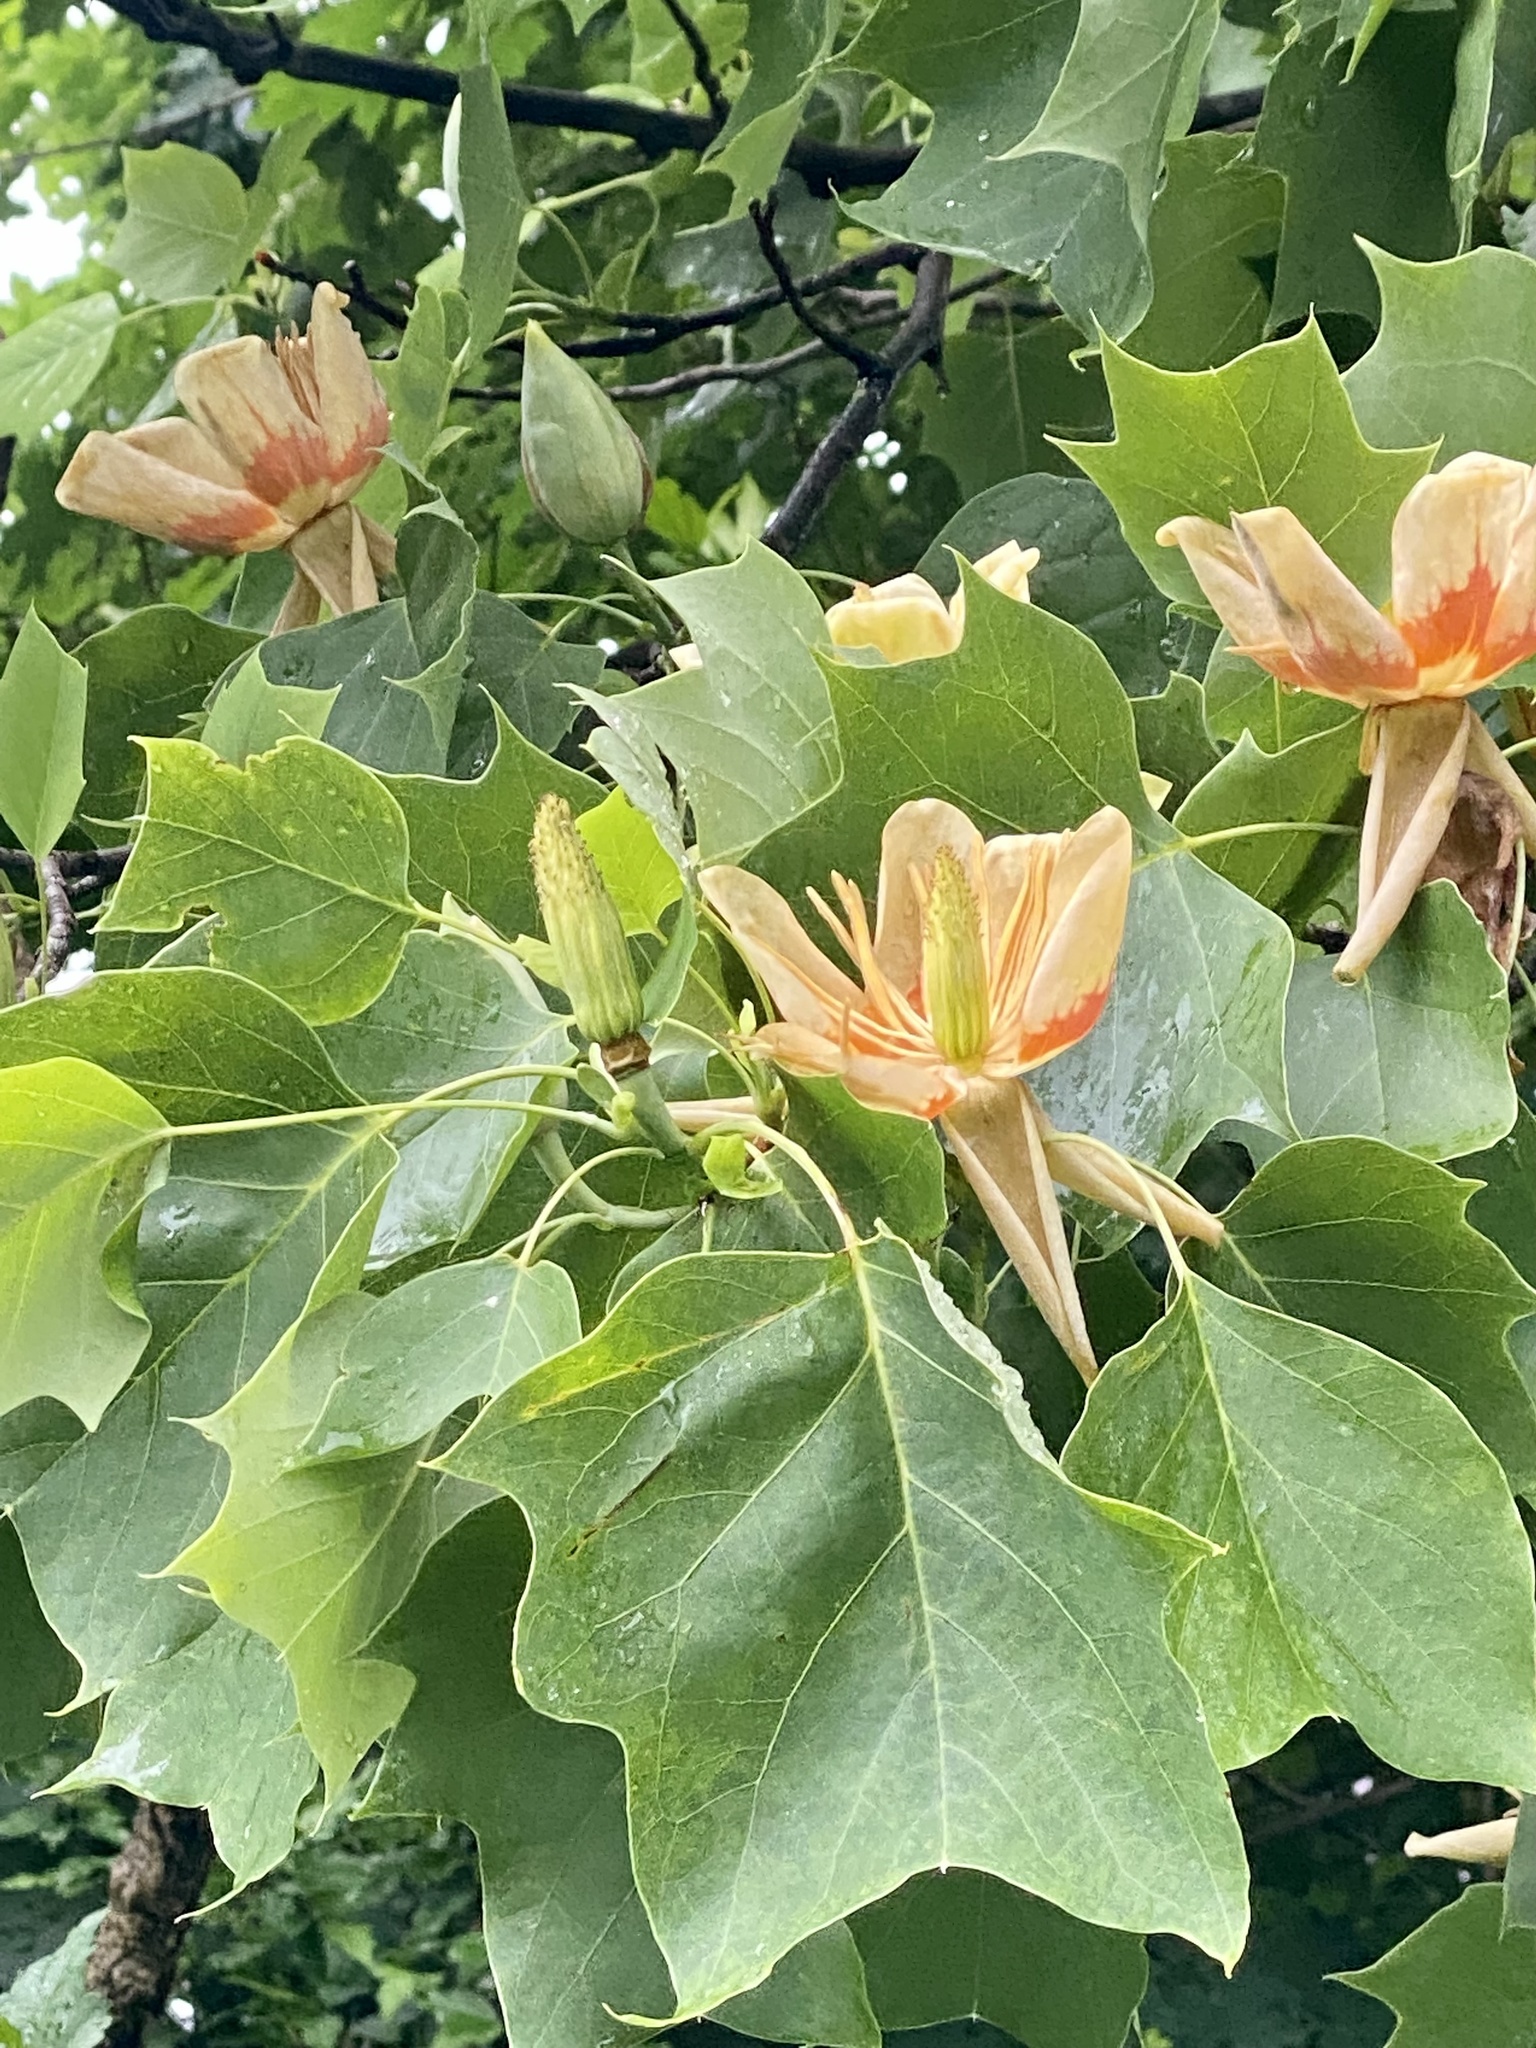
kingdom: Plantae
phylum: Tracheophyta
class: Magnoliopsida
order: Magnoliales
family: Magnoliaceae
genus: Liriodendron
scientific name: Liriodendron tulipifera
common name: Tulip tree
